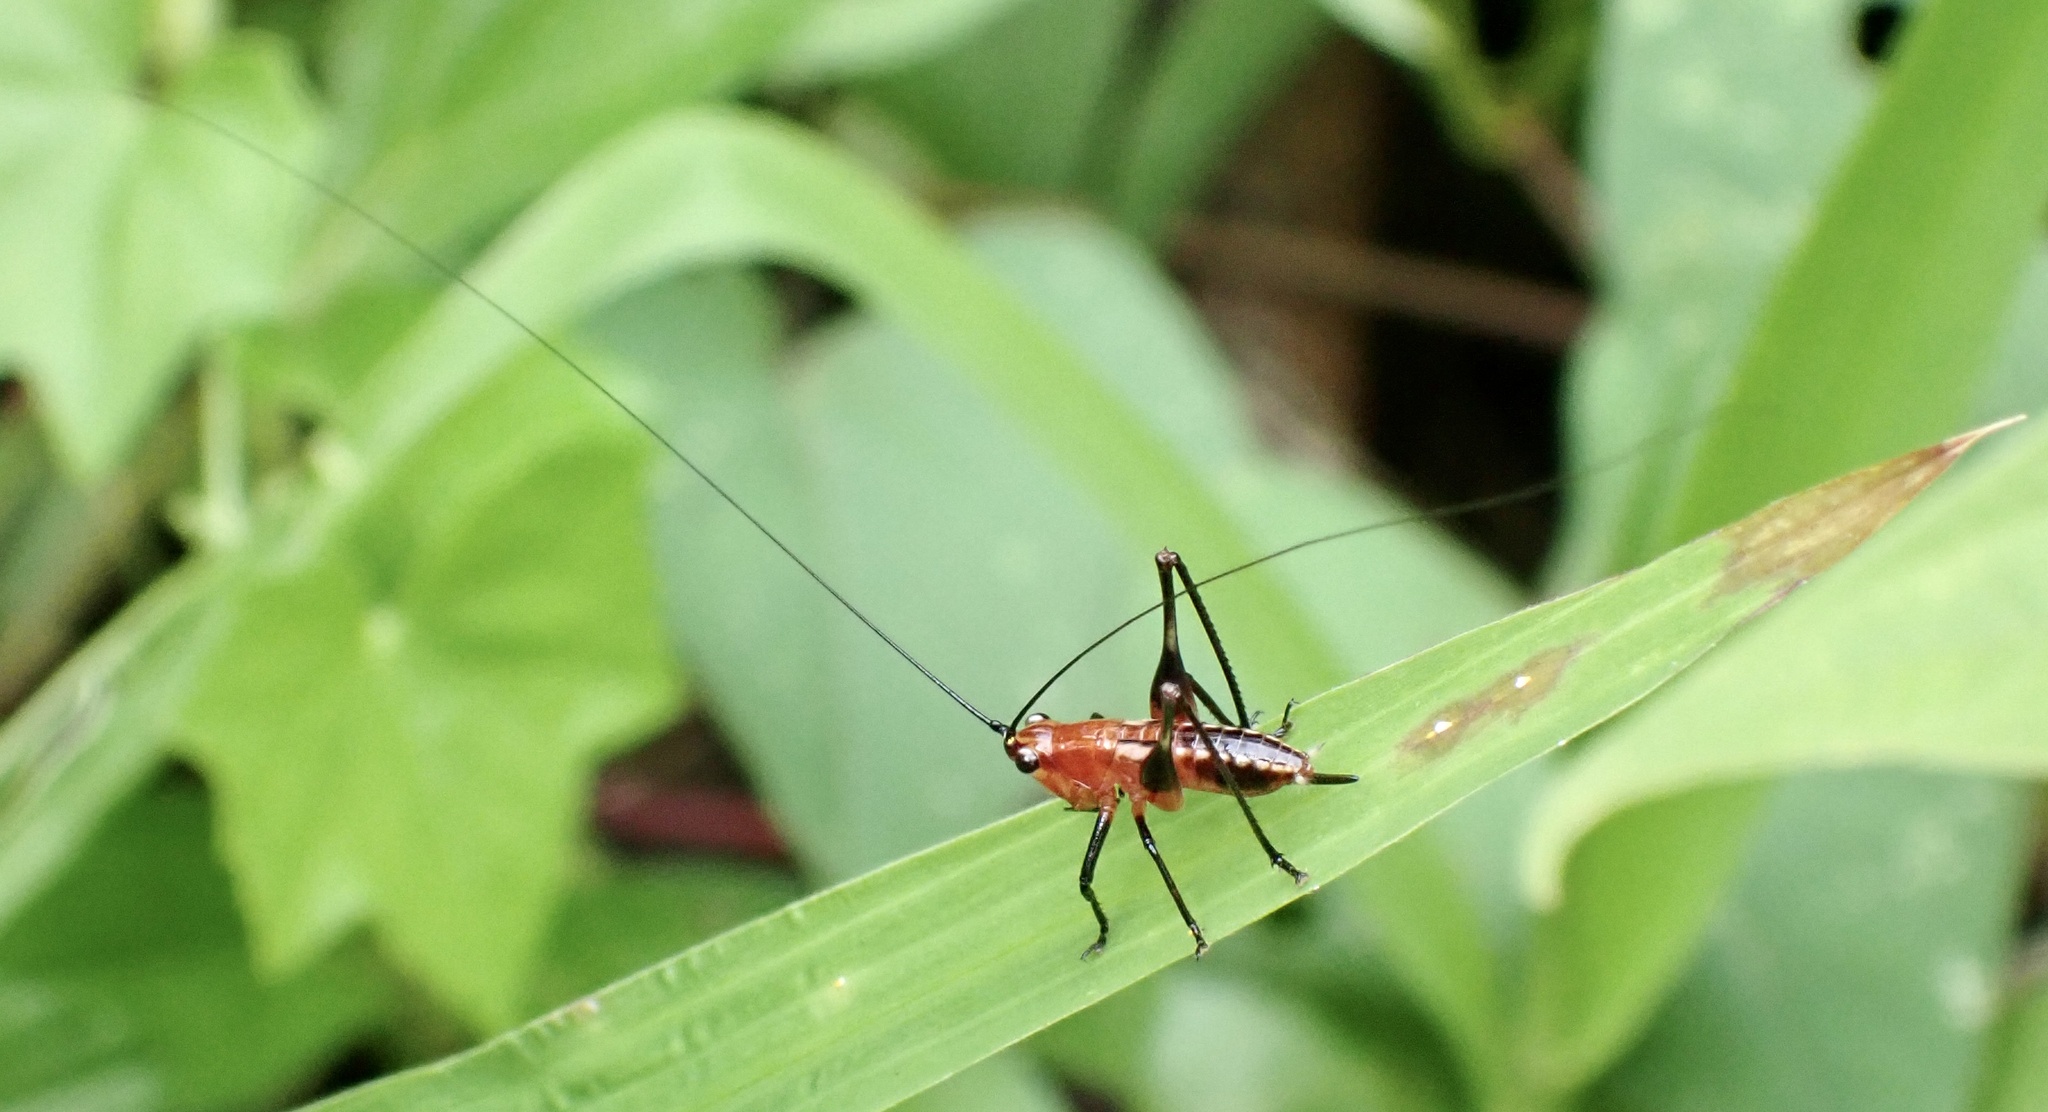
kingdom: Animalia
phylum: Arthropoda
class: Insecta
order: Orthoptera
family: Tettigoniidae
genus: Conocephalus
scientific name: Conocephalus melaenus
